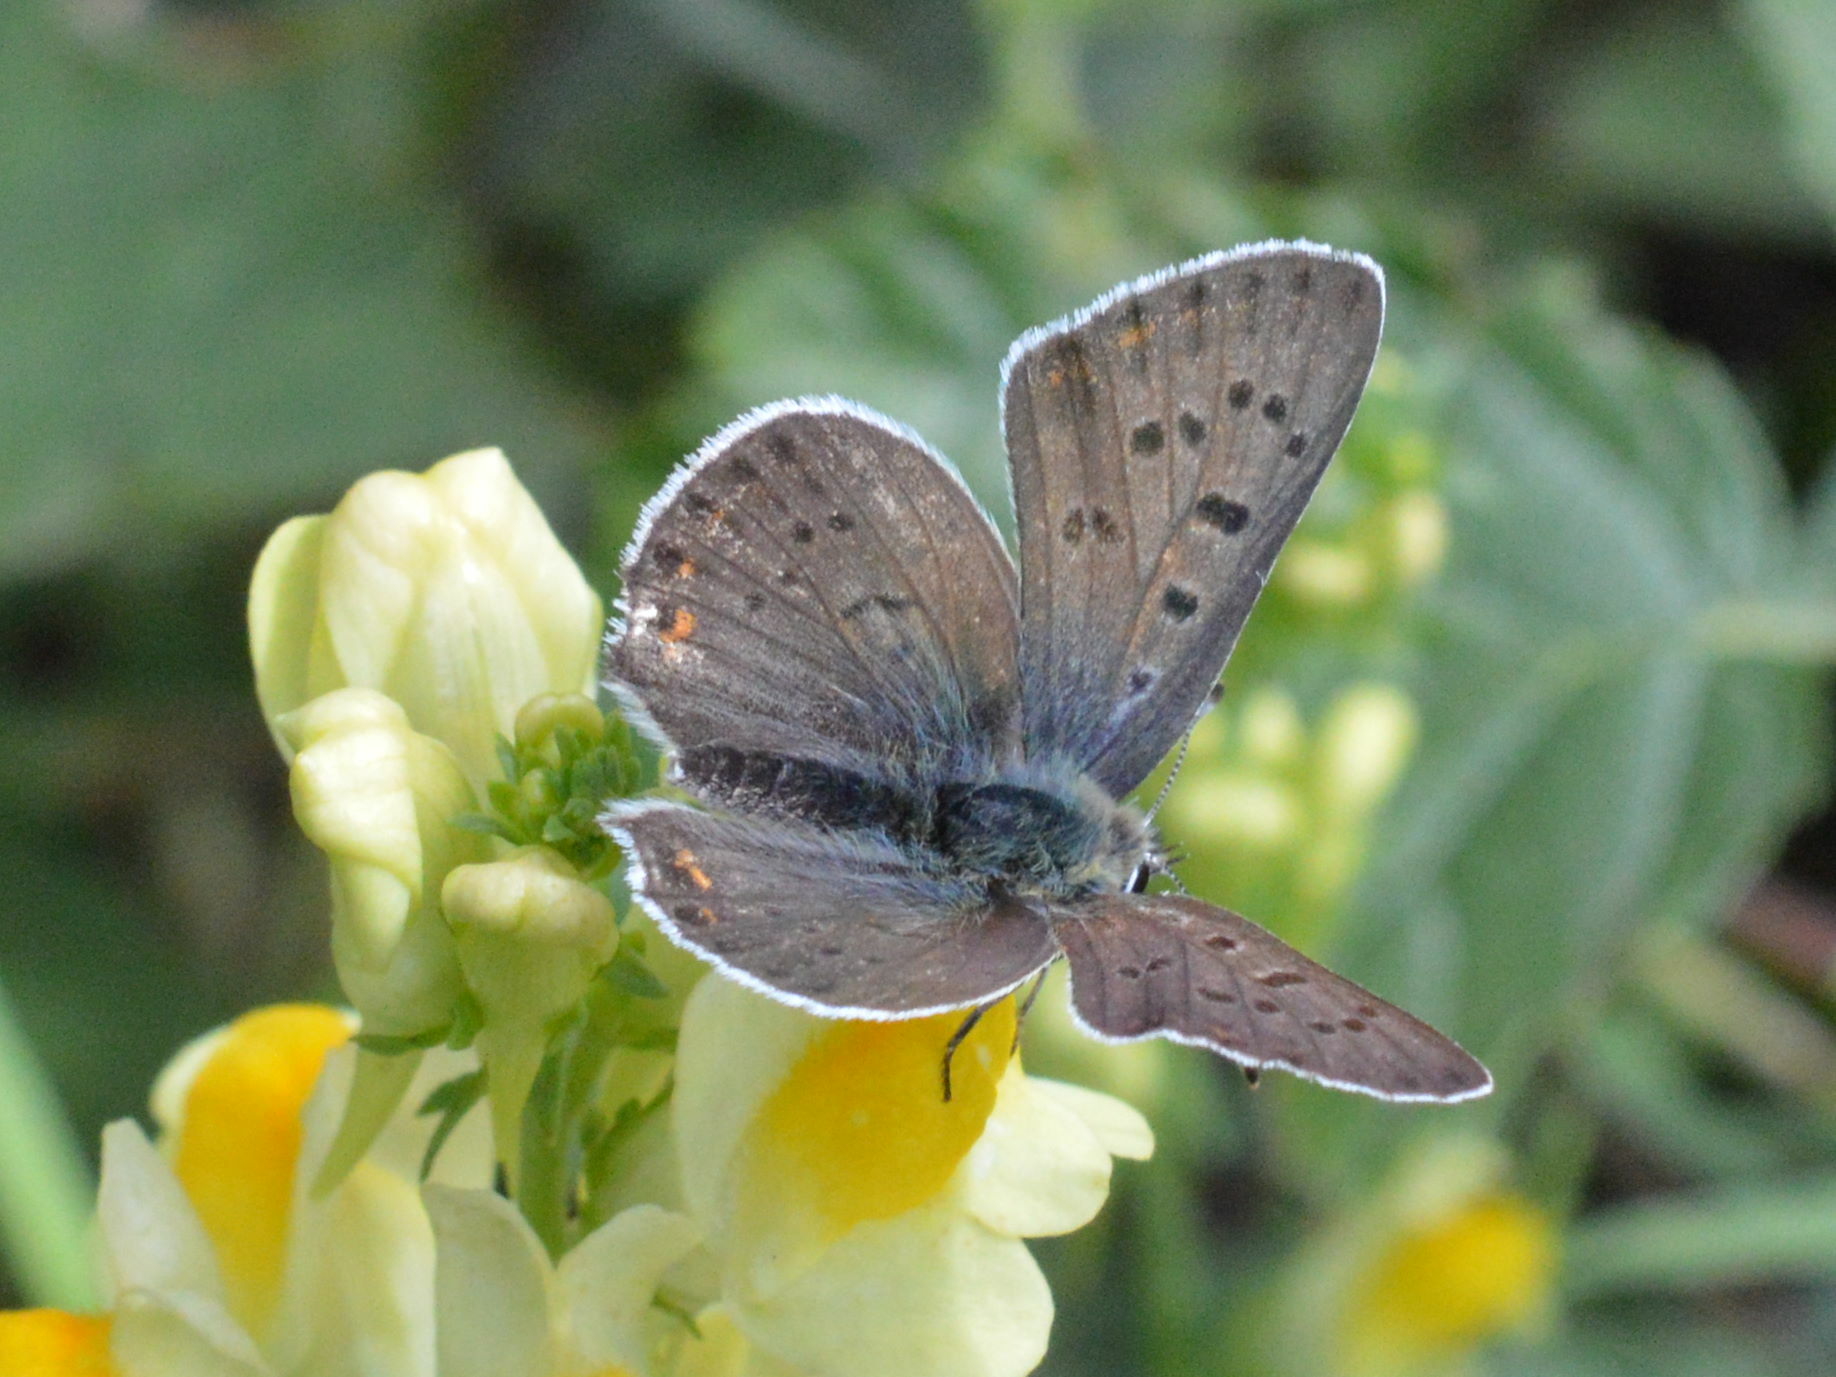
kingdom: Animalia
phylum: Arthropoda
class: Insecta
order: Lepidoptera
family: Lycaenidae
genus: Loweia
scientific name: Loweia tityrus
